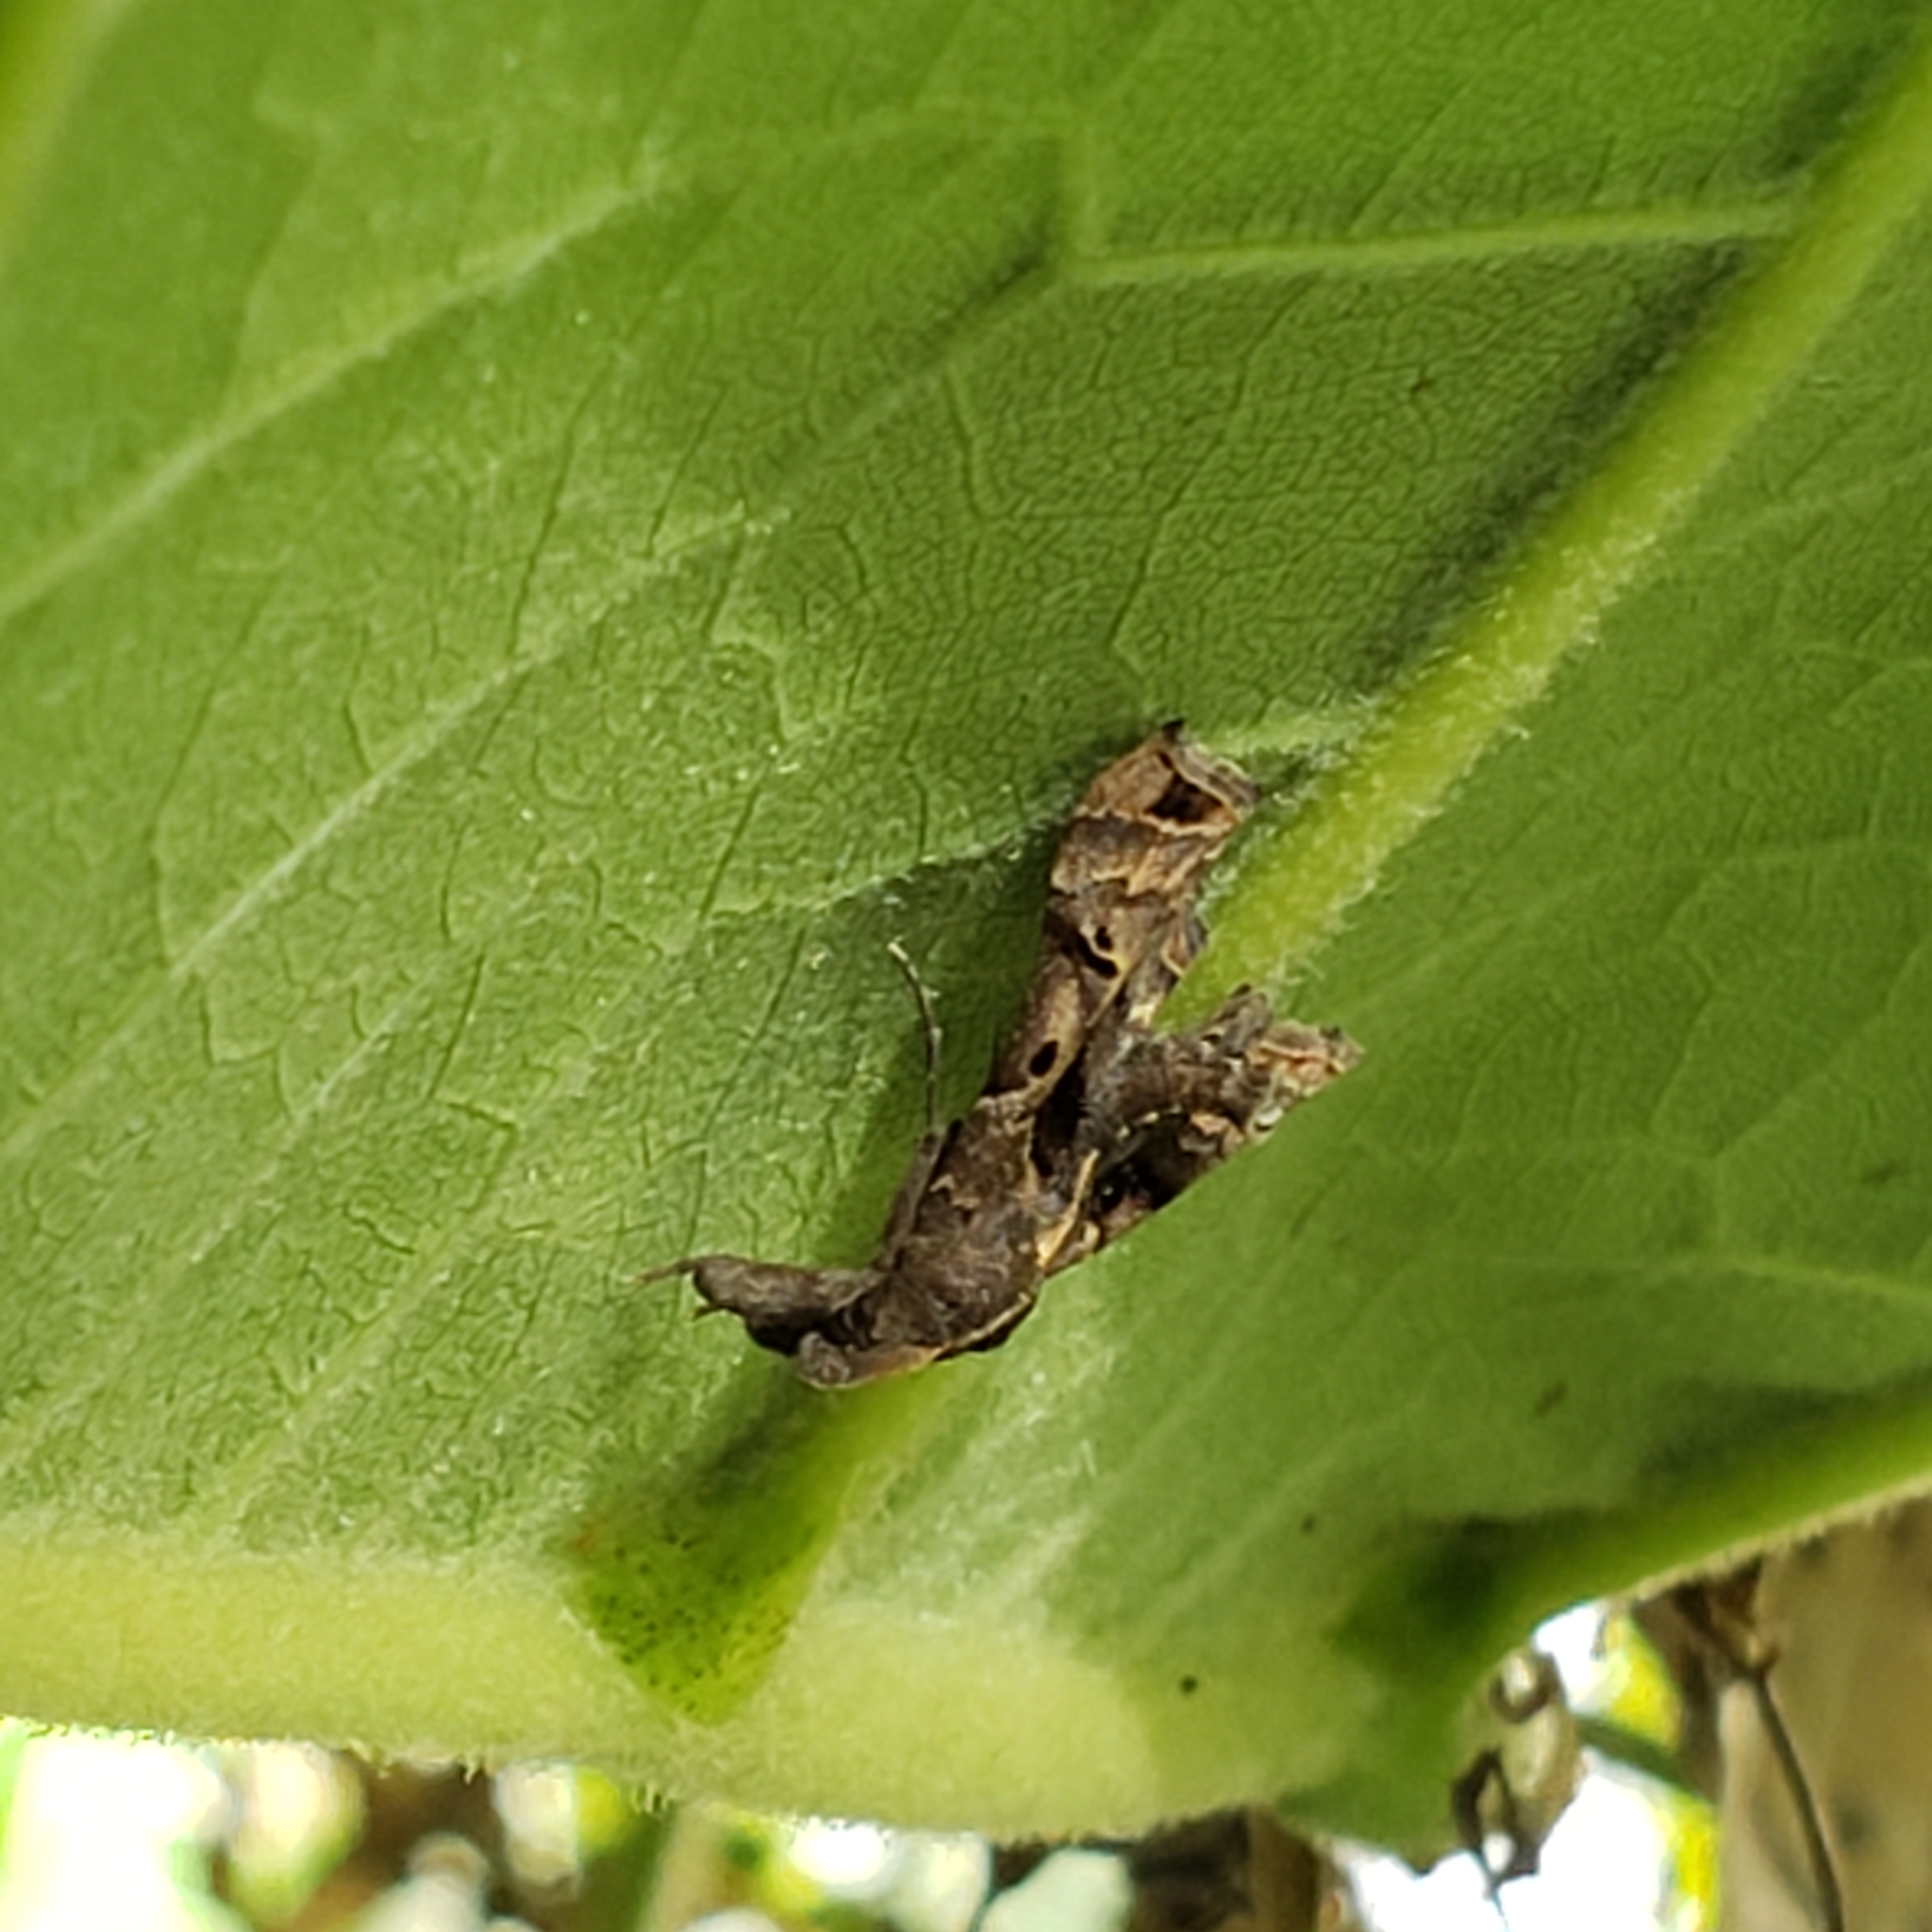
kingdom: Animalia
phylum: Arthropoda
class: Insecta
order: Lepidoptera
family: Erebidae
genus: Palthis
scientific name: Palthis asopialis
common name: Faint-spotted palthis moth
